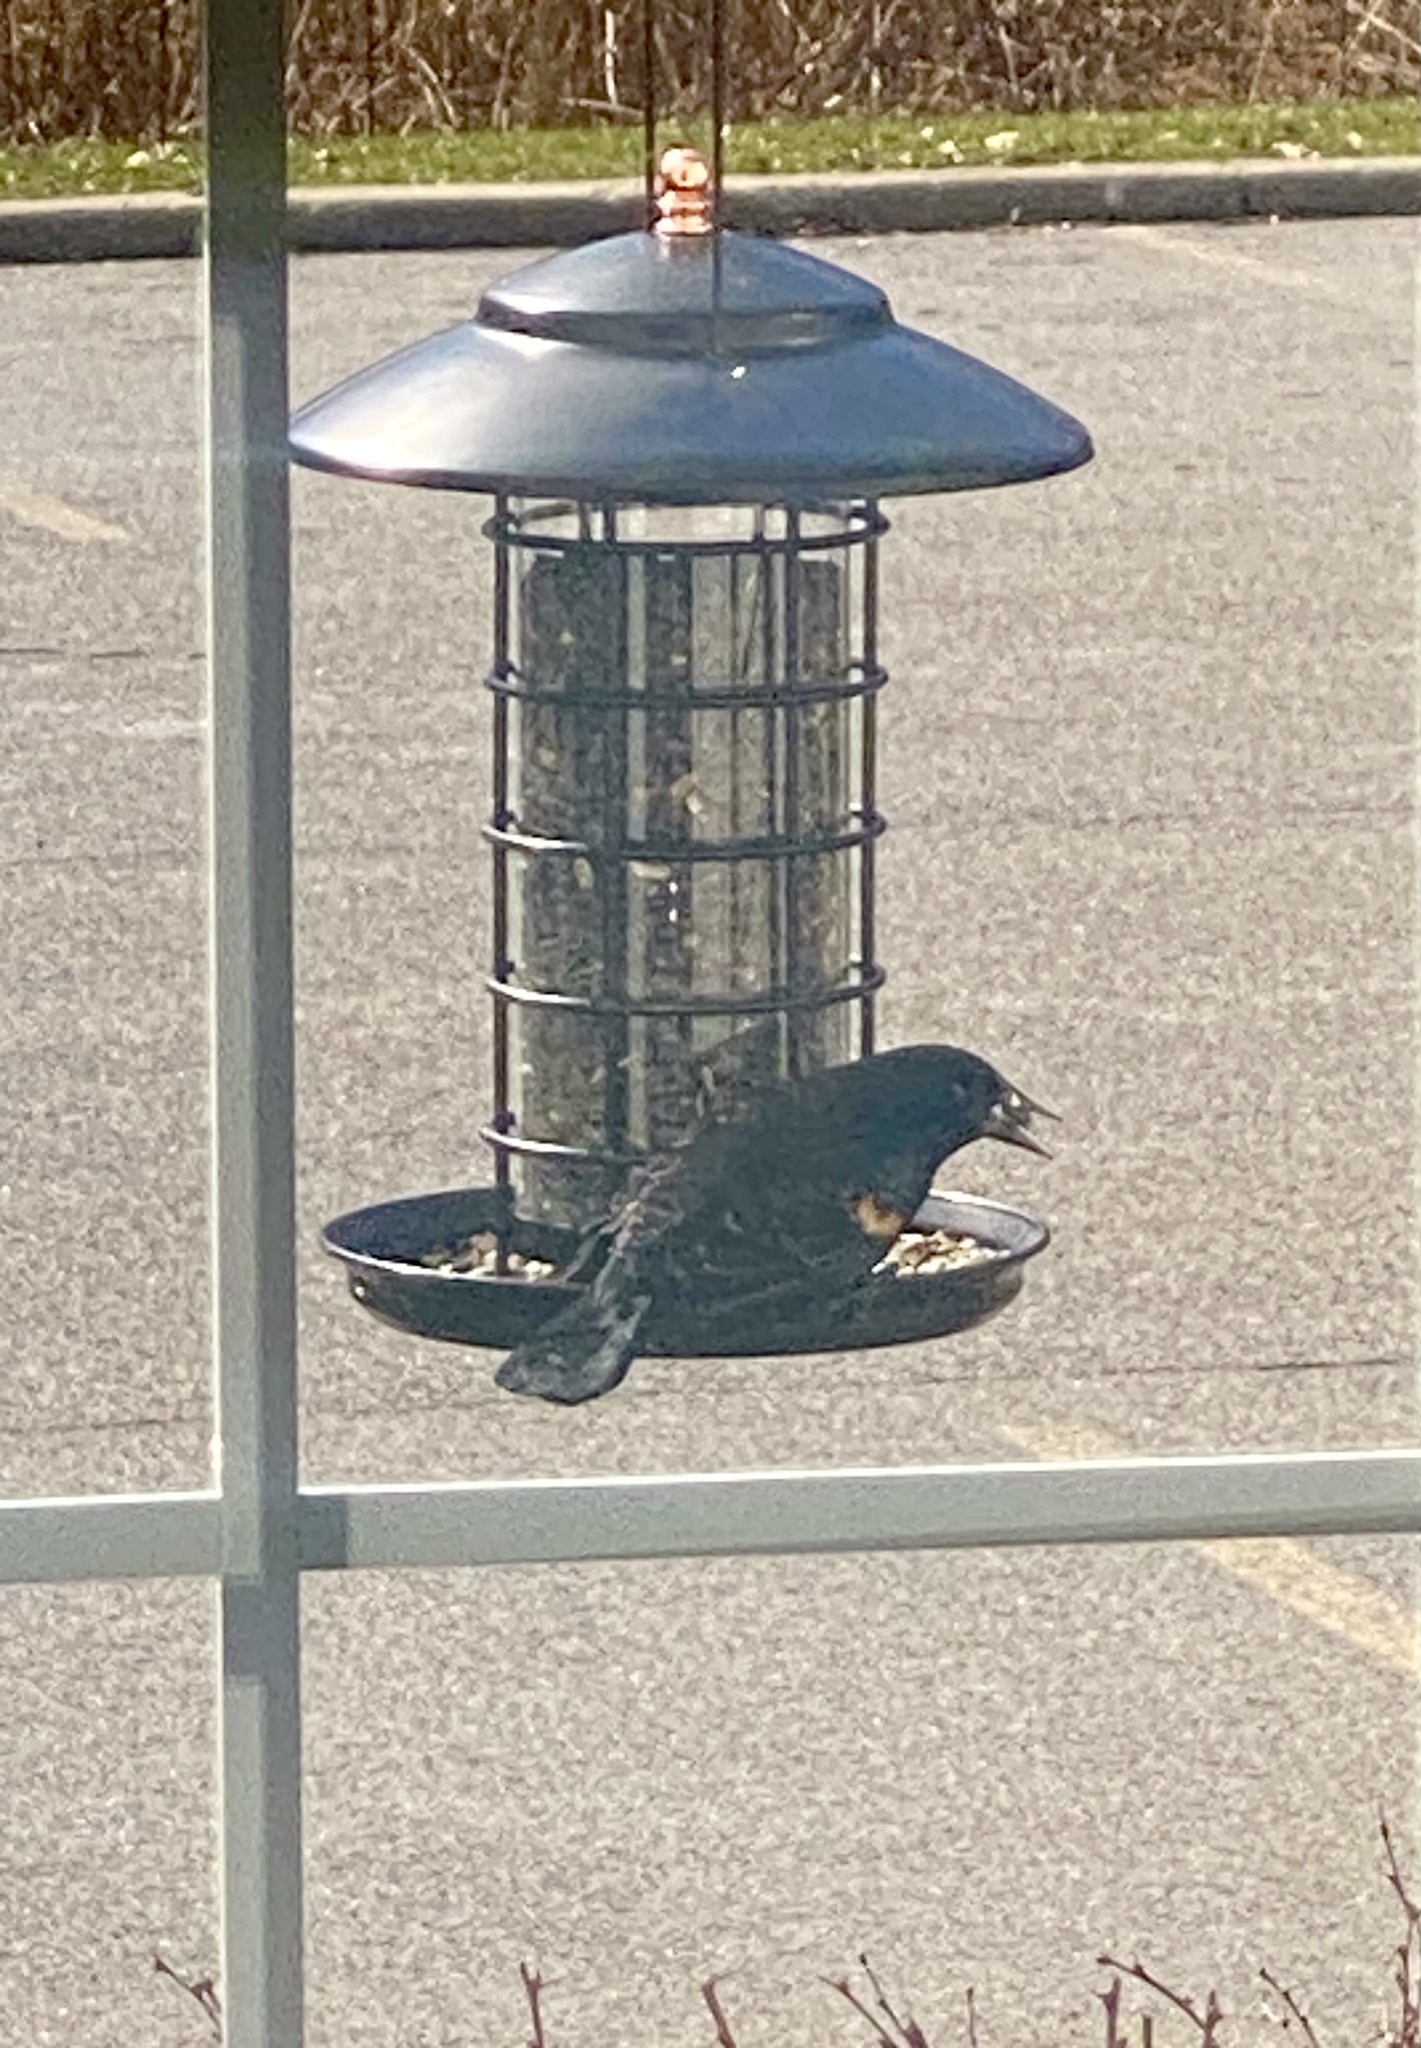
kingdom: Animalia
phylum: Chordata
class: Aves
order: Passeriformes
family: Icteridae
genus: Agelaius
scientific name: Agelaius phoeniceus
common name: Red-winged blackbird
